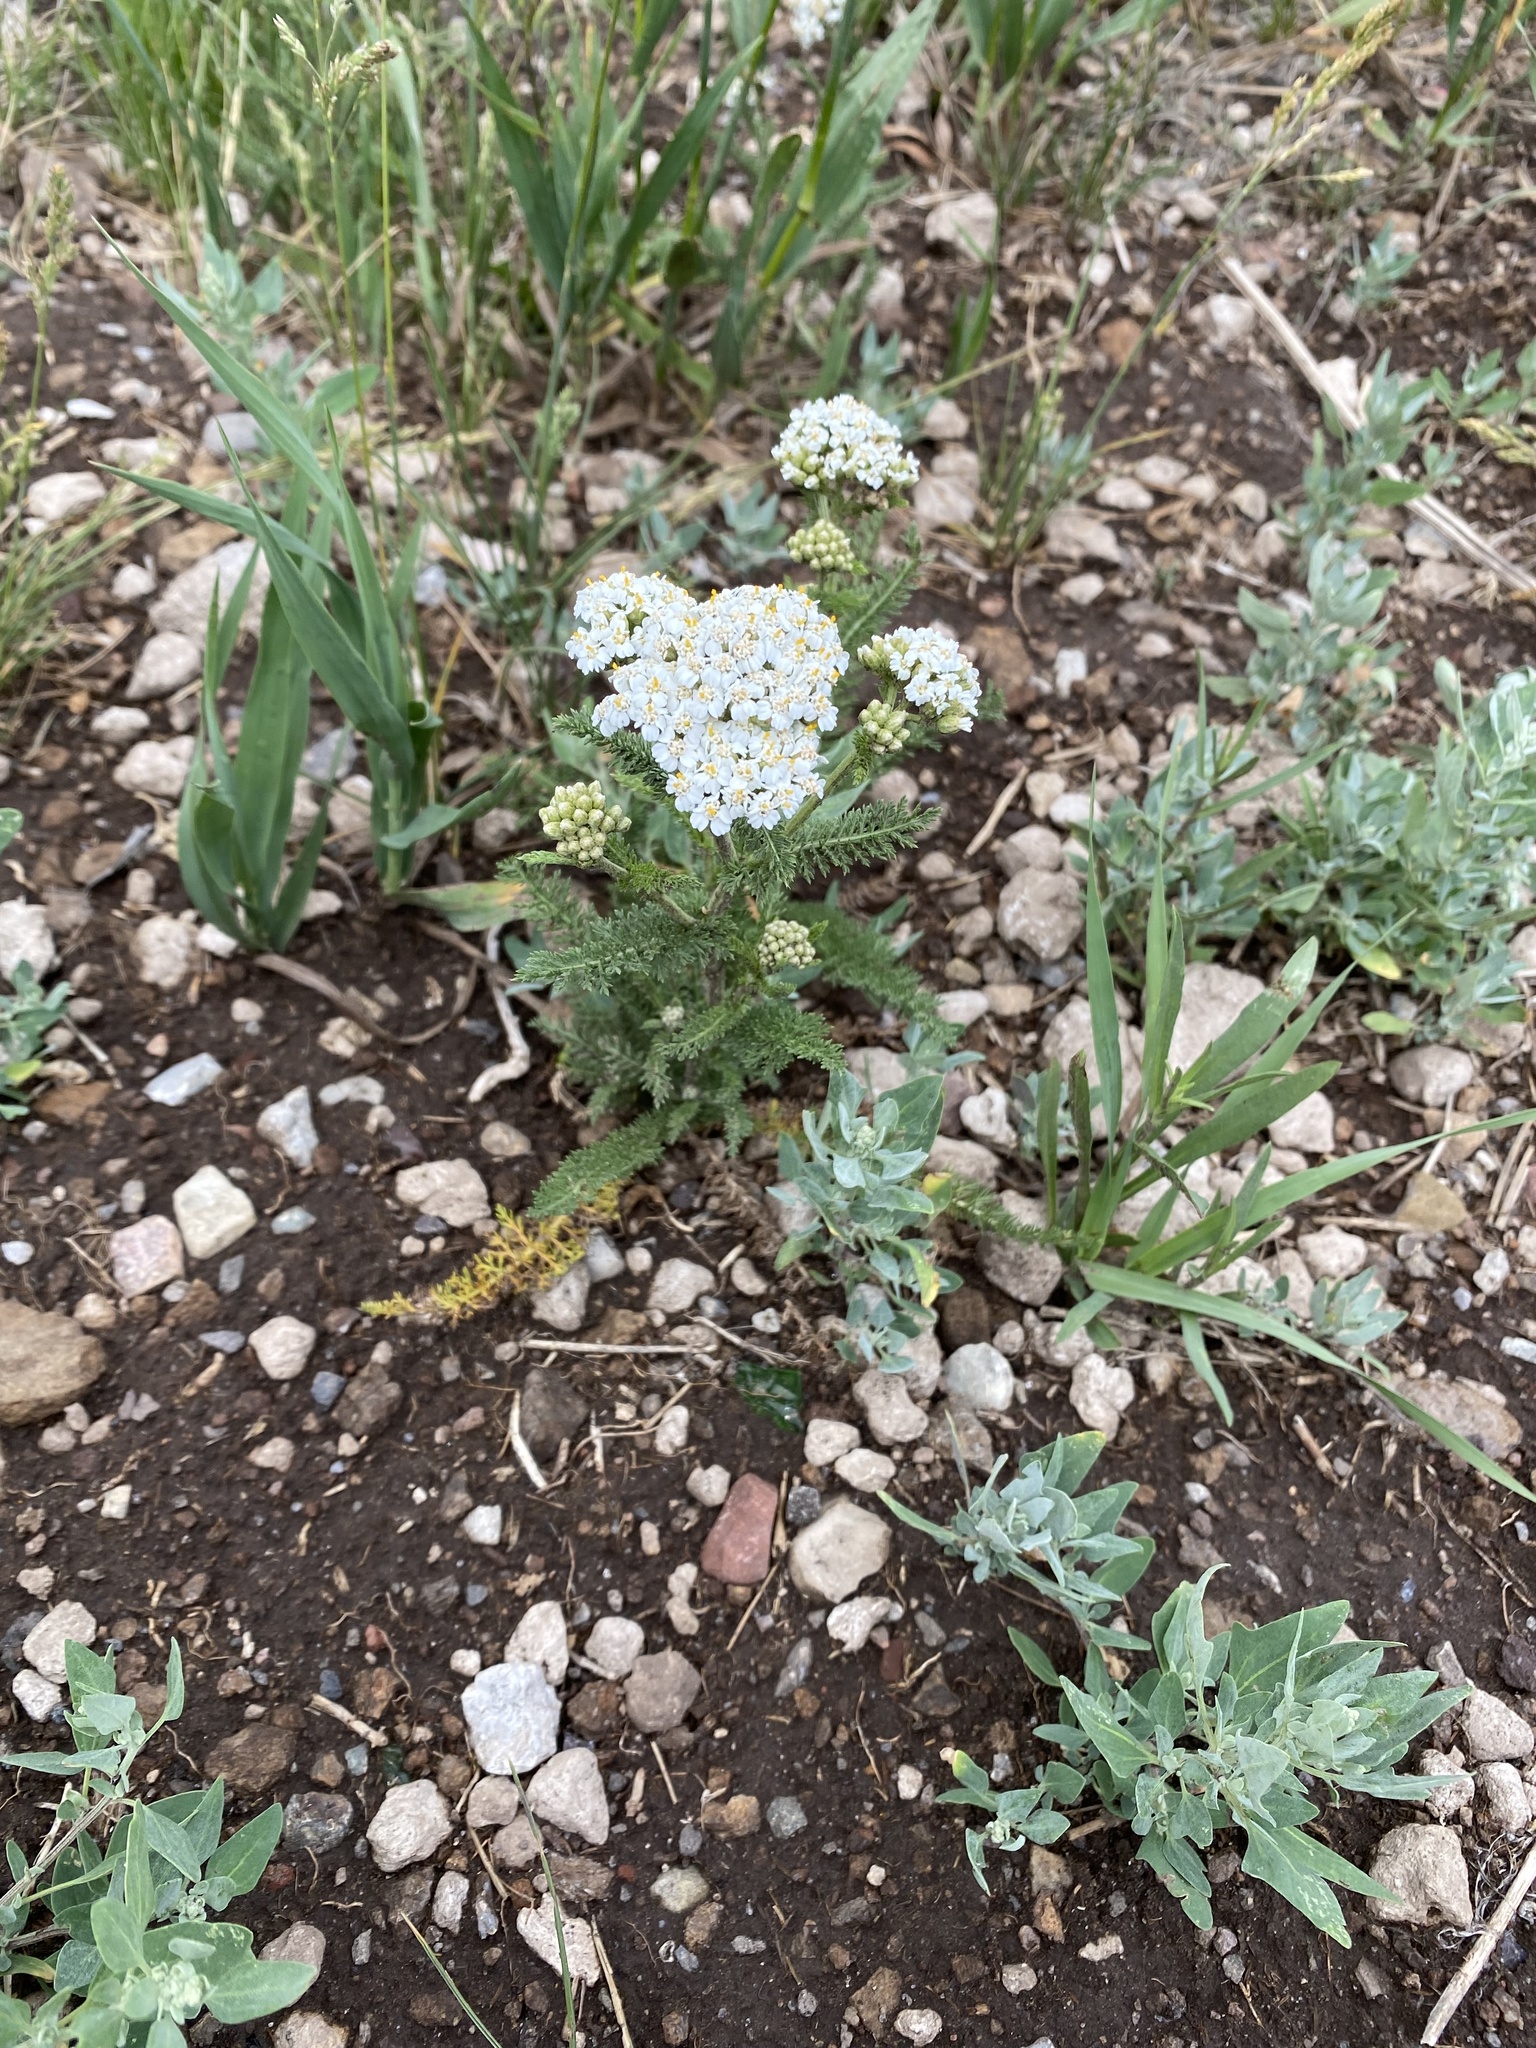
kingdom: Plantae
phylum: Tracheophyta
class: Magnoliopsida
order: Asterales
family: Asteraceae
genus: Achillea
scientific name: Achillea millefolium
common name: Yarrow
